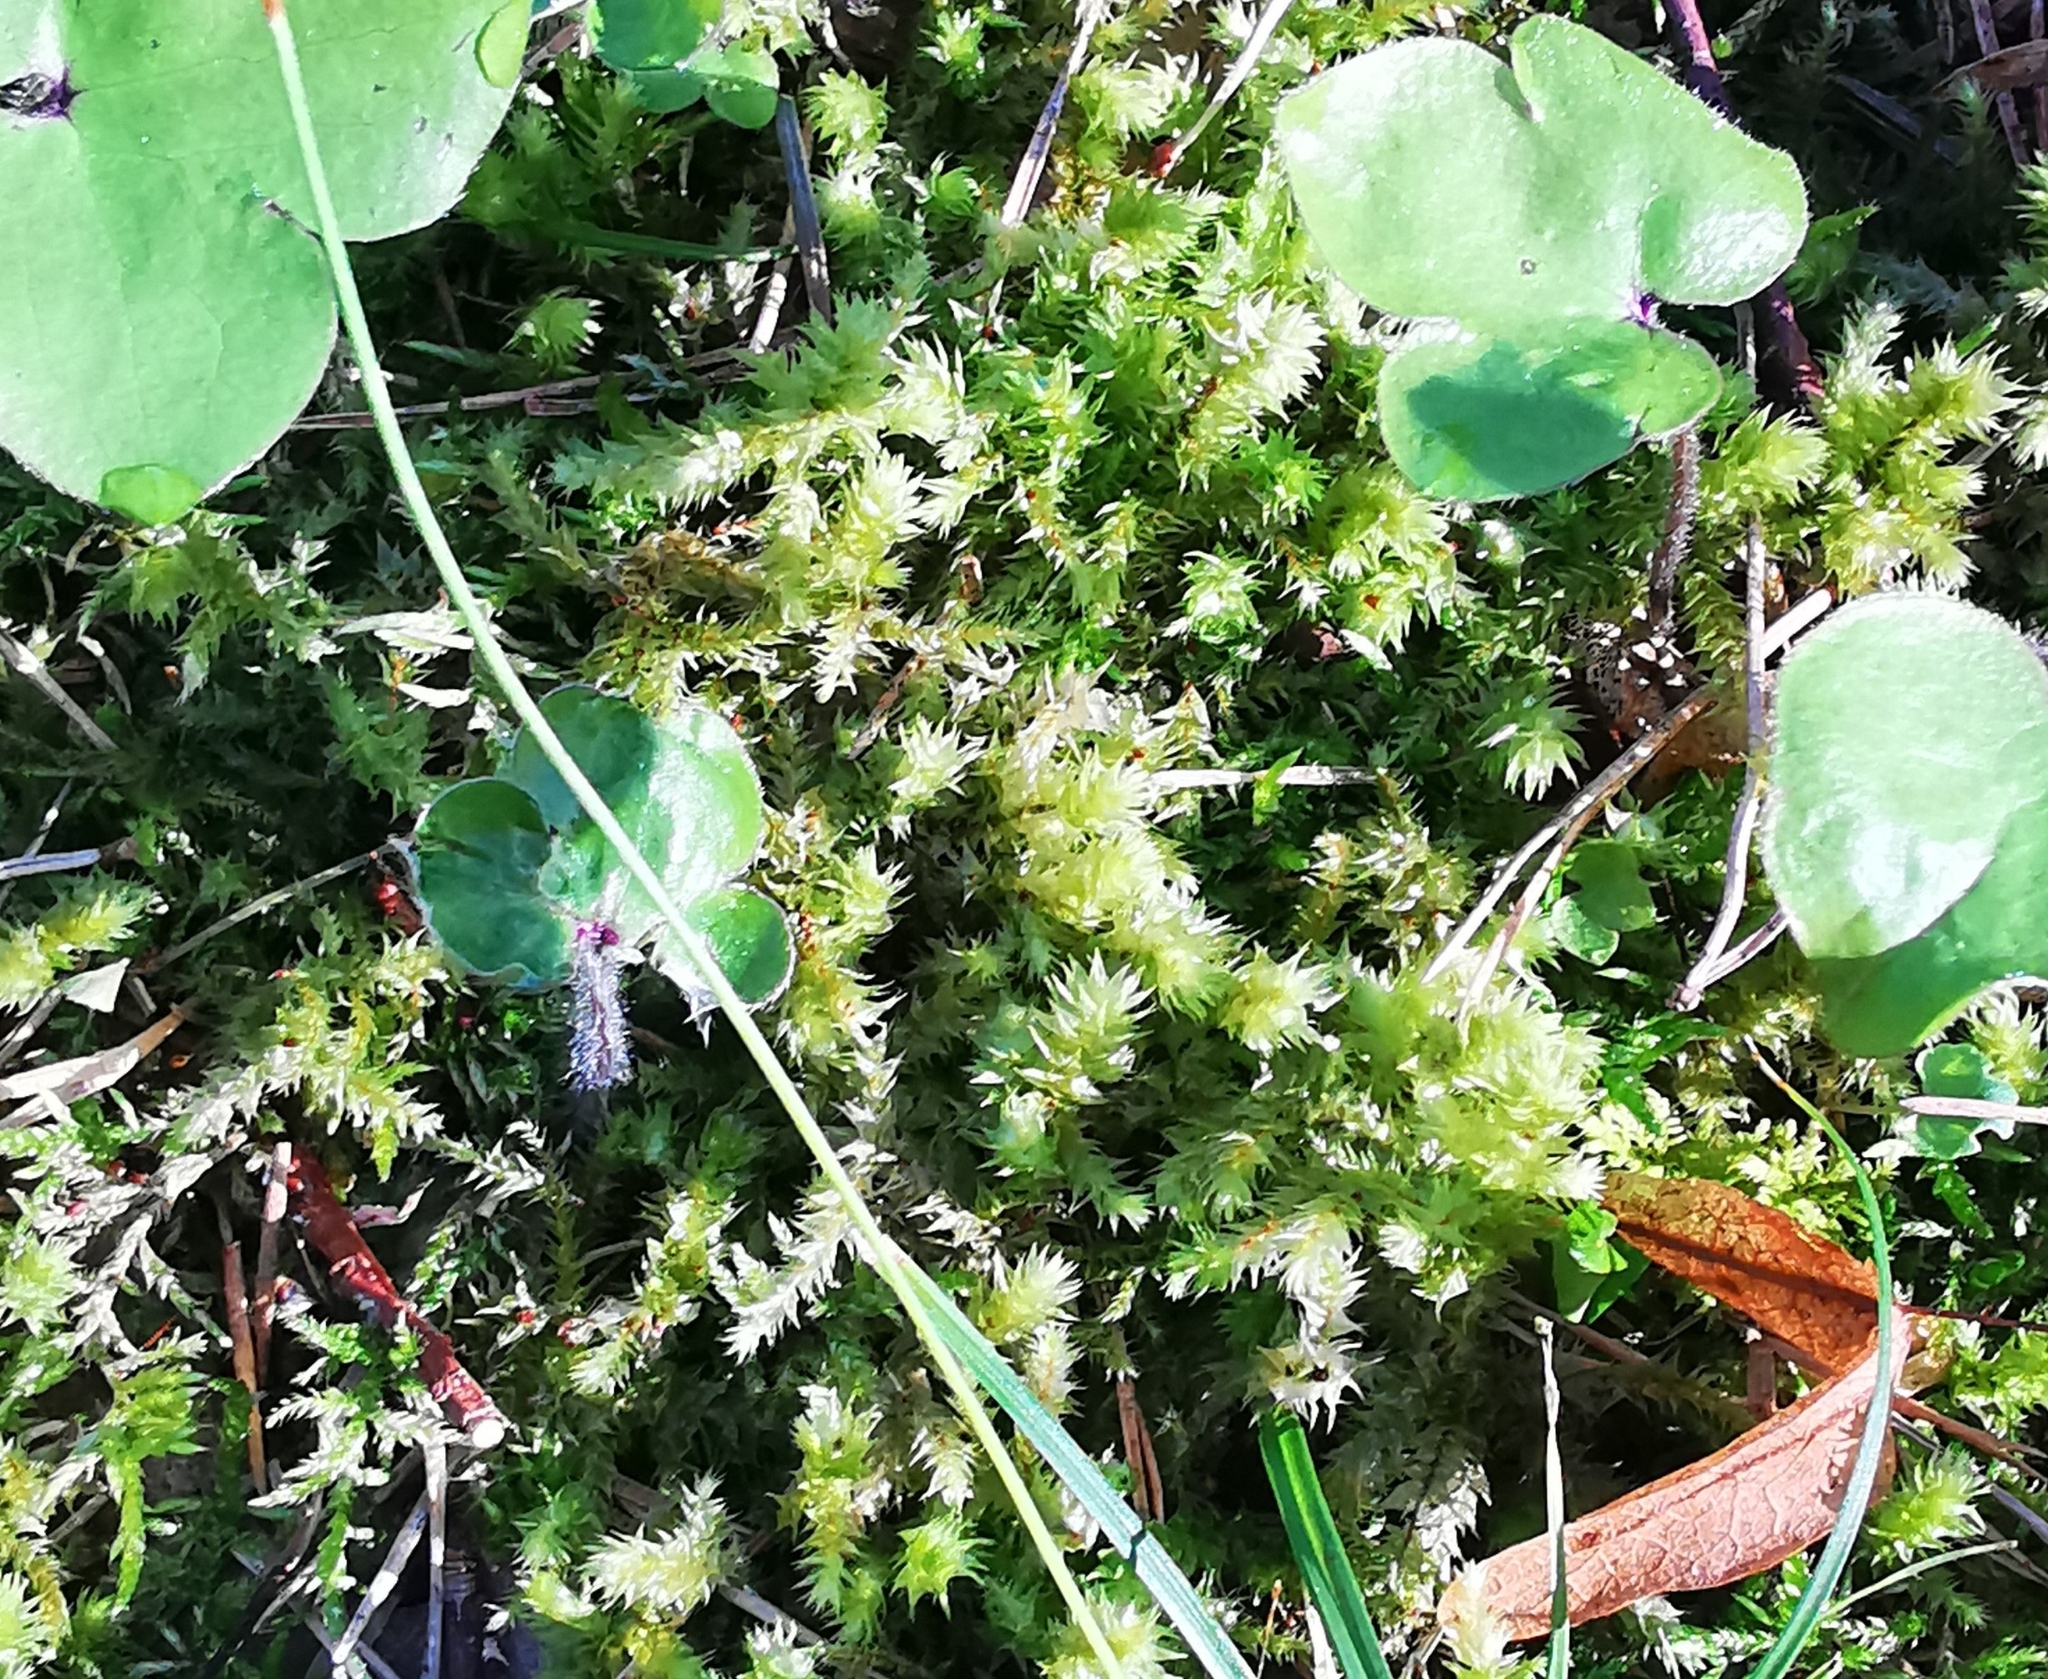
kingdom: Plantae
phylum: Bryophyta
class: Bryopsida
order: Hypnales
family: Hylocomiaceae
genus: Hylocomiadelphus
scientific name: Hylocomiadelphus triquetrus
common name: Rough goose neck moss
